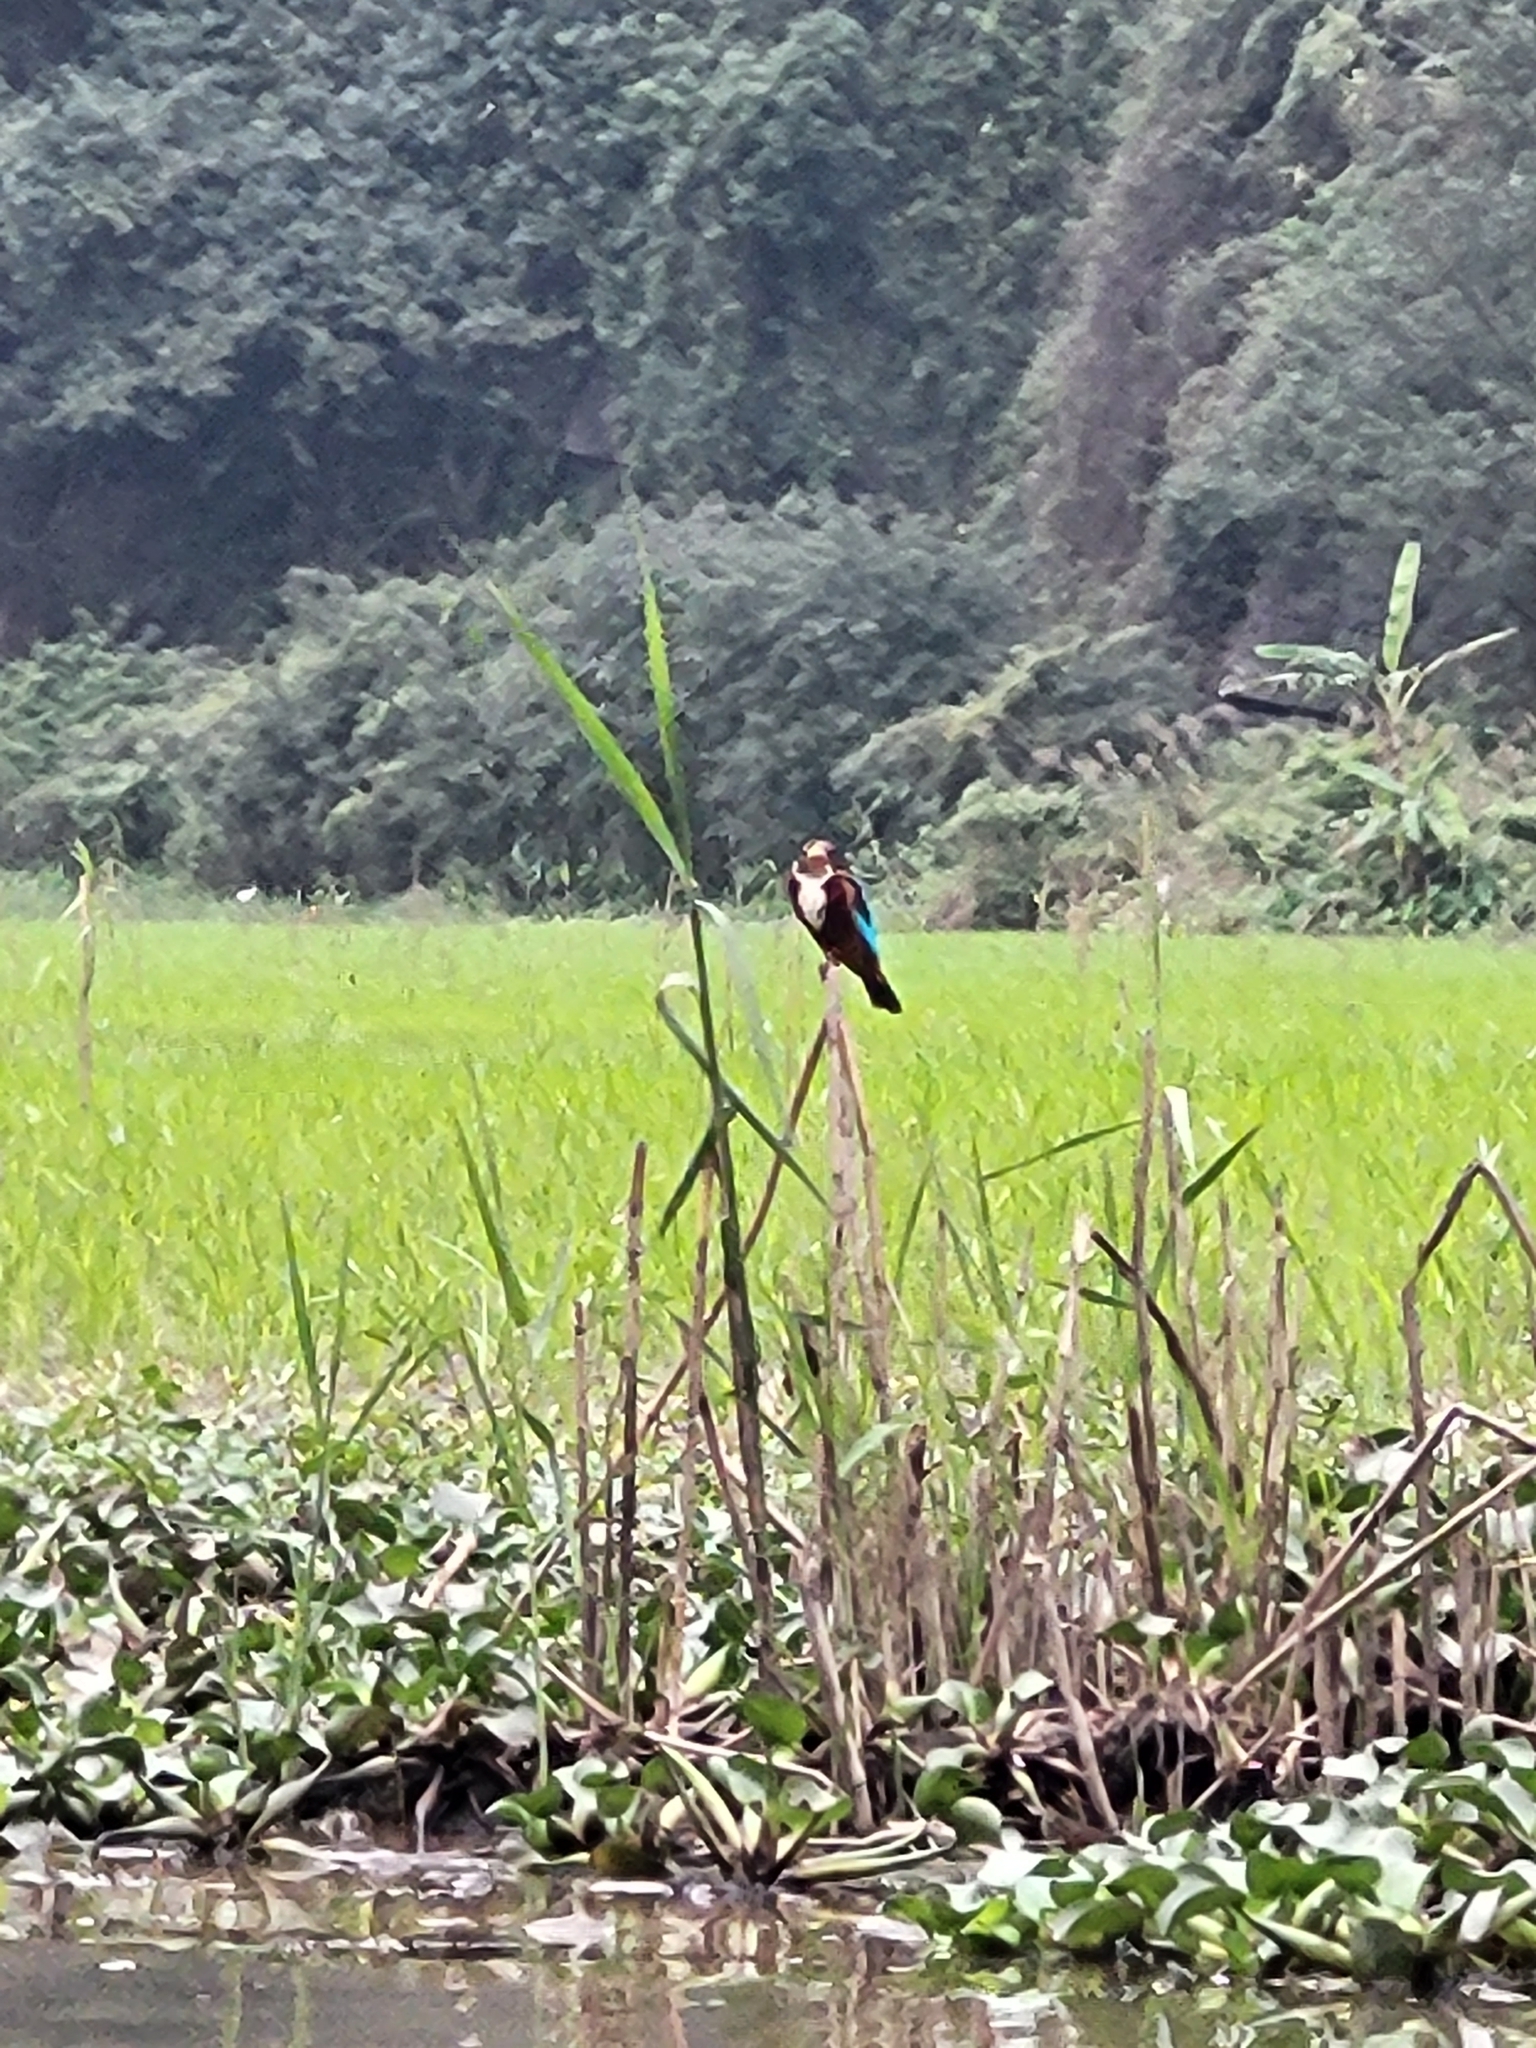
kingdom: Animalia
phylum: Chordata
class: Aves
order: Coraciiformes
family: Alcedinidae
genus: Halcyon
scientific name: Halcyon smyrnensis
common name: White-throated kingfisher
